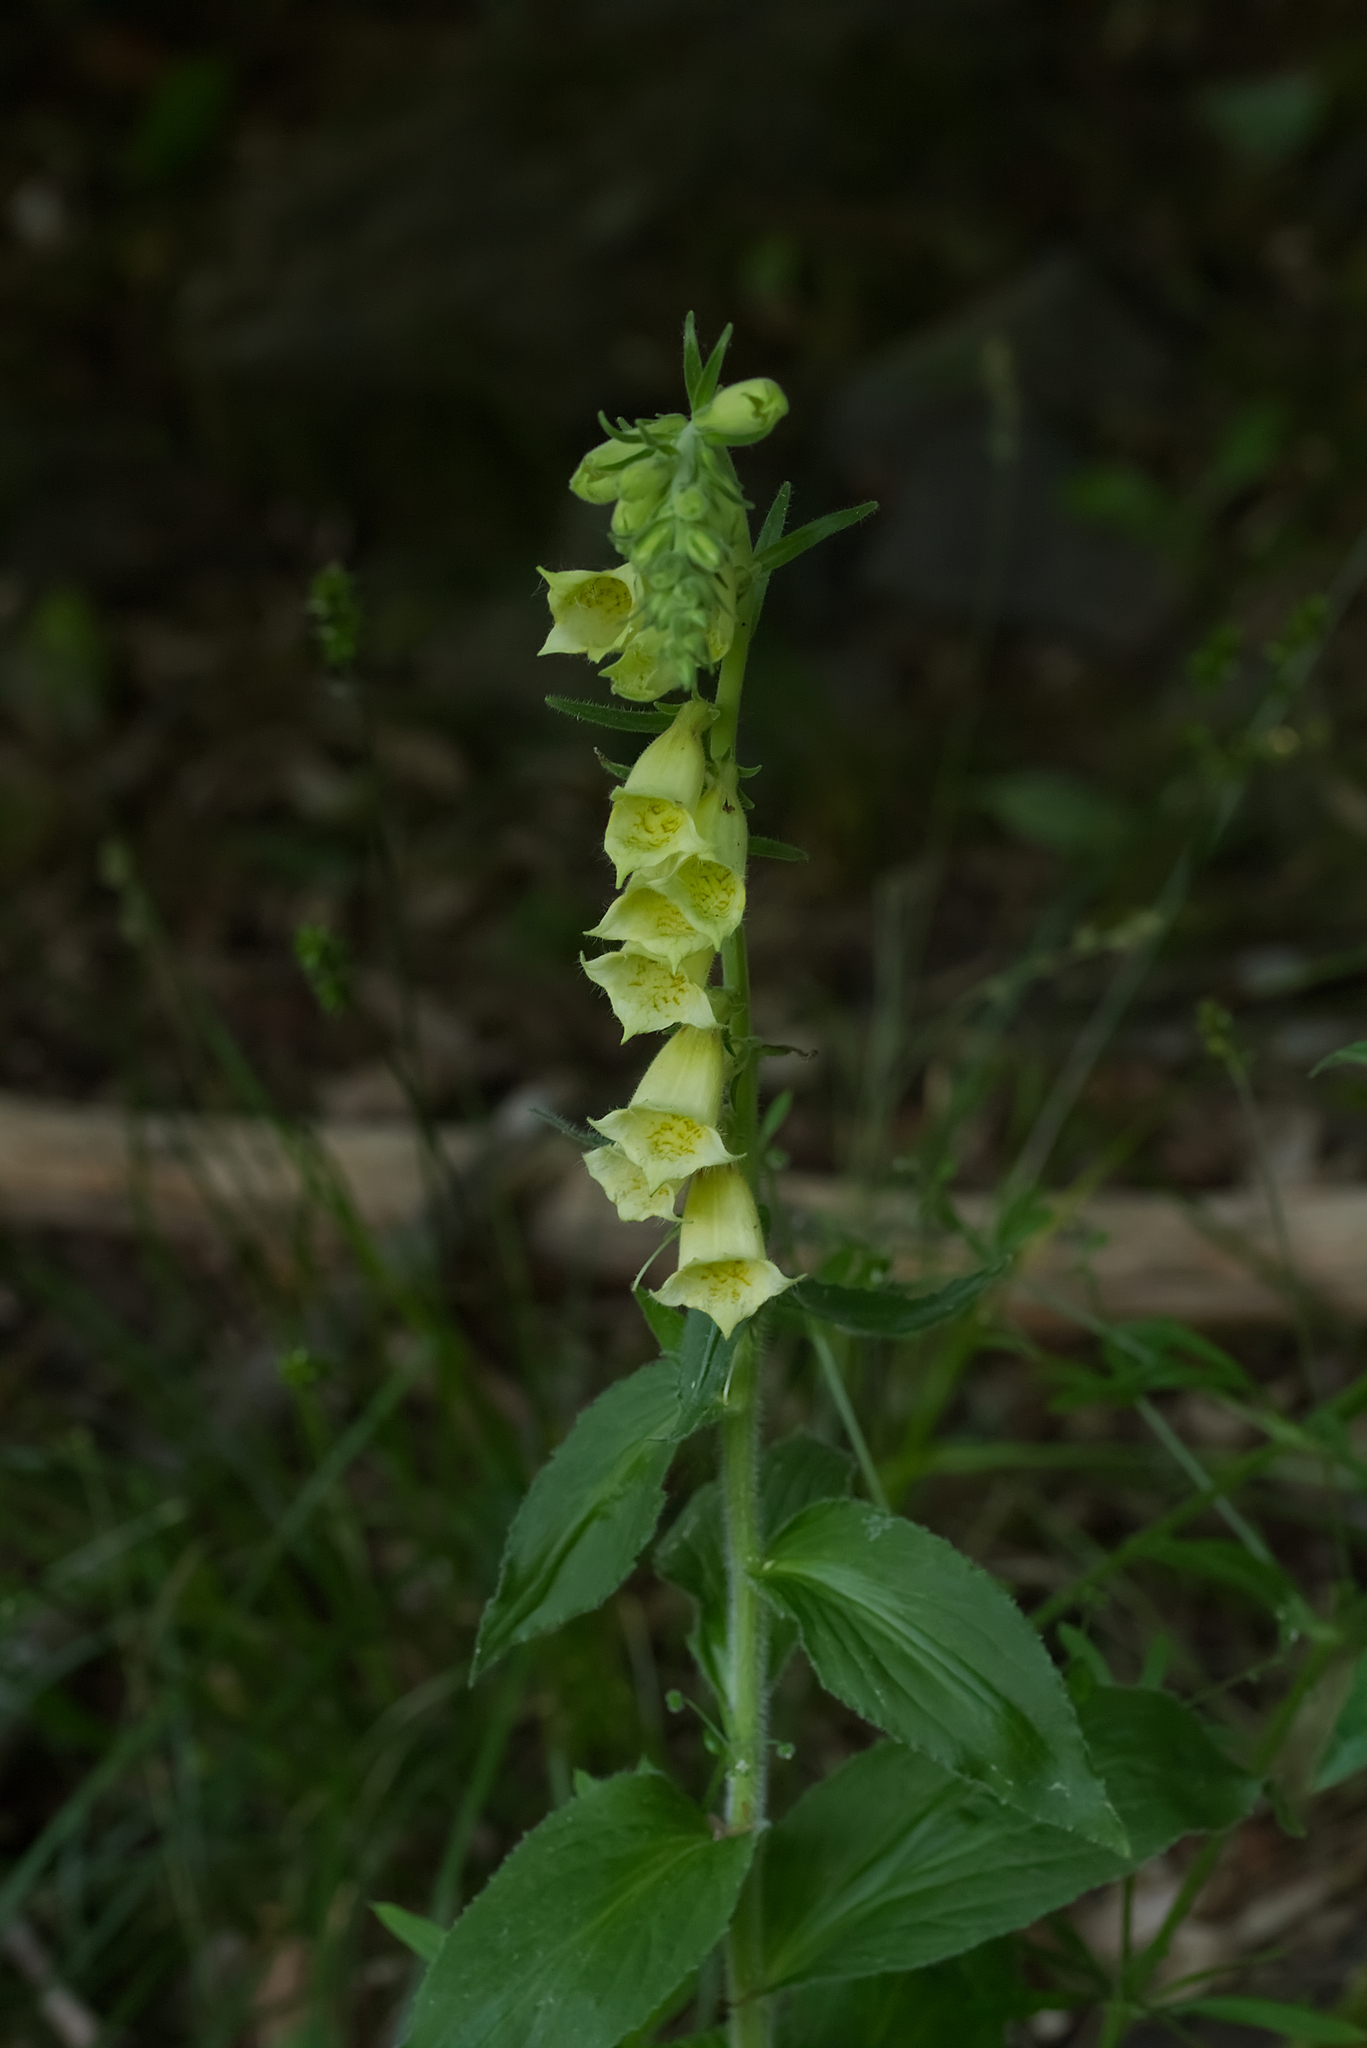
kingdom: Plantae
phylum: Tracheophyta
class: Magnoliopsida
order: Lamiales
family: Plantaginaceae
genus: Digitalis
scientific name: Digitalis grandiflora
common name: Yellow foxglove
